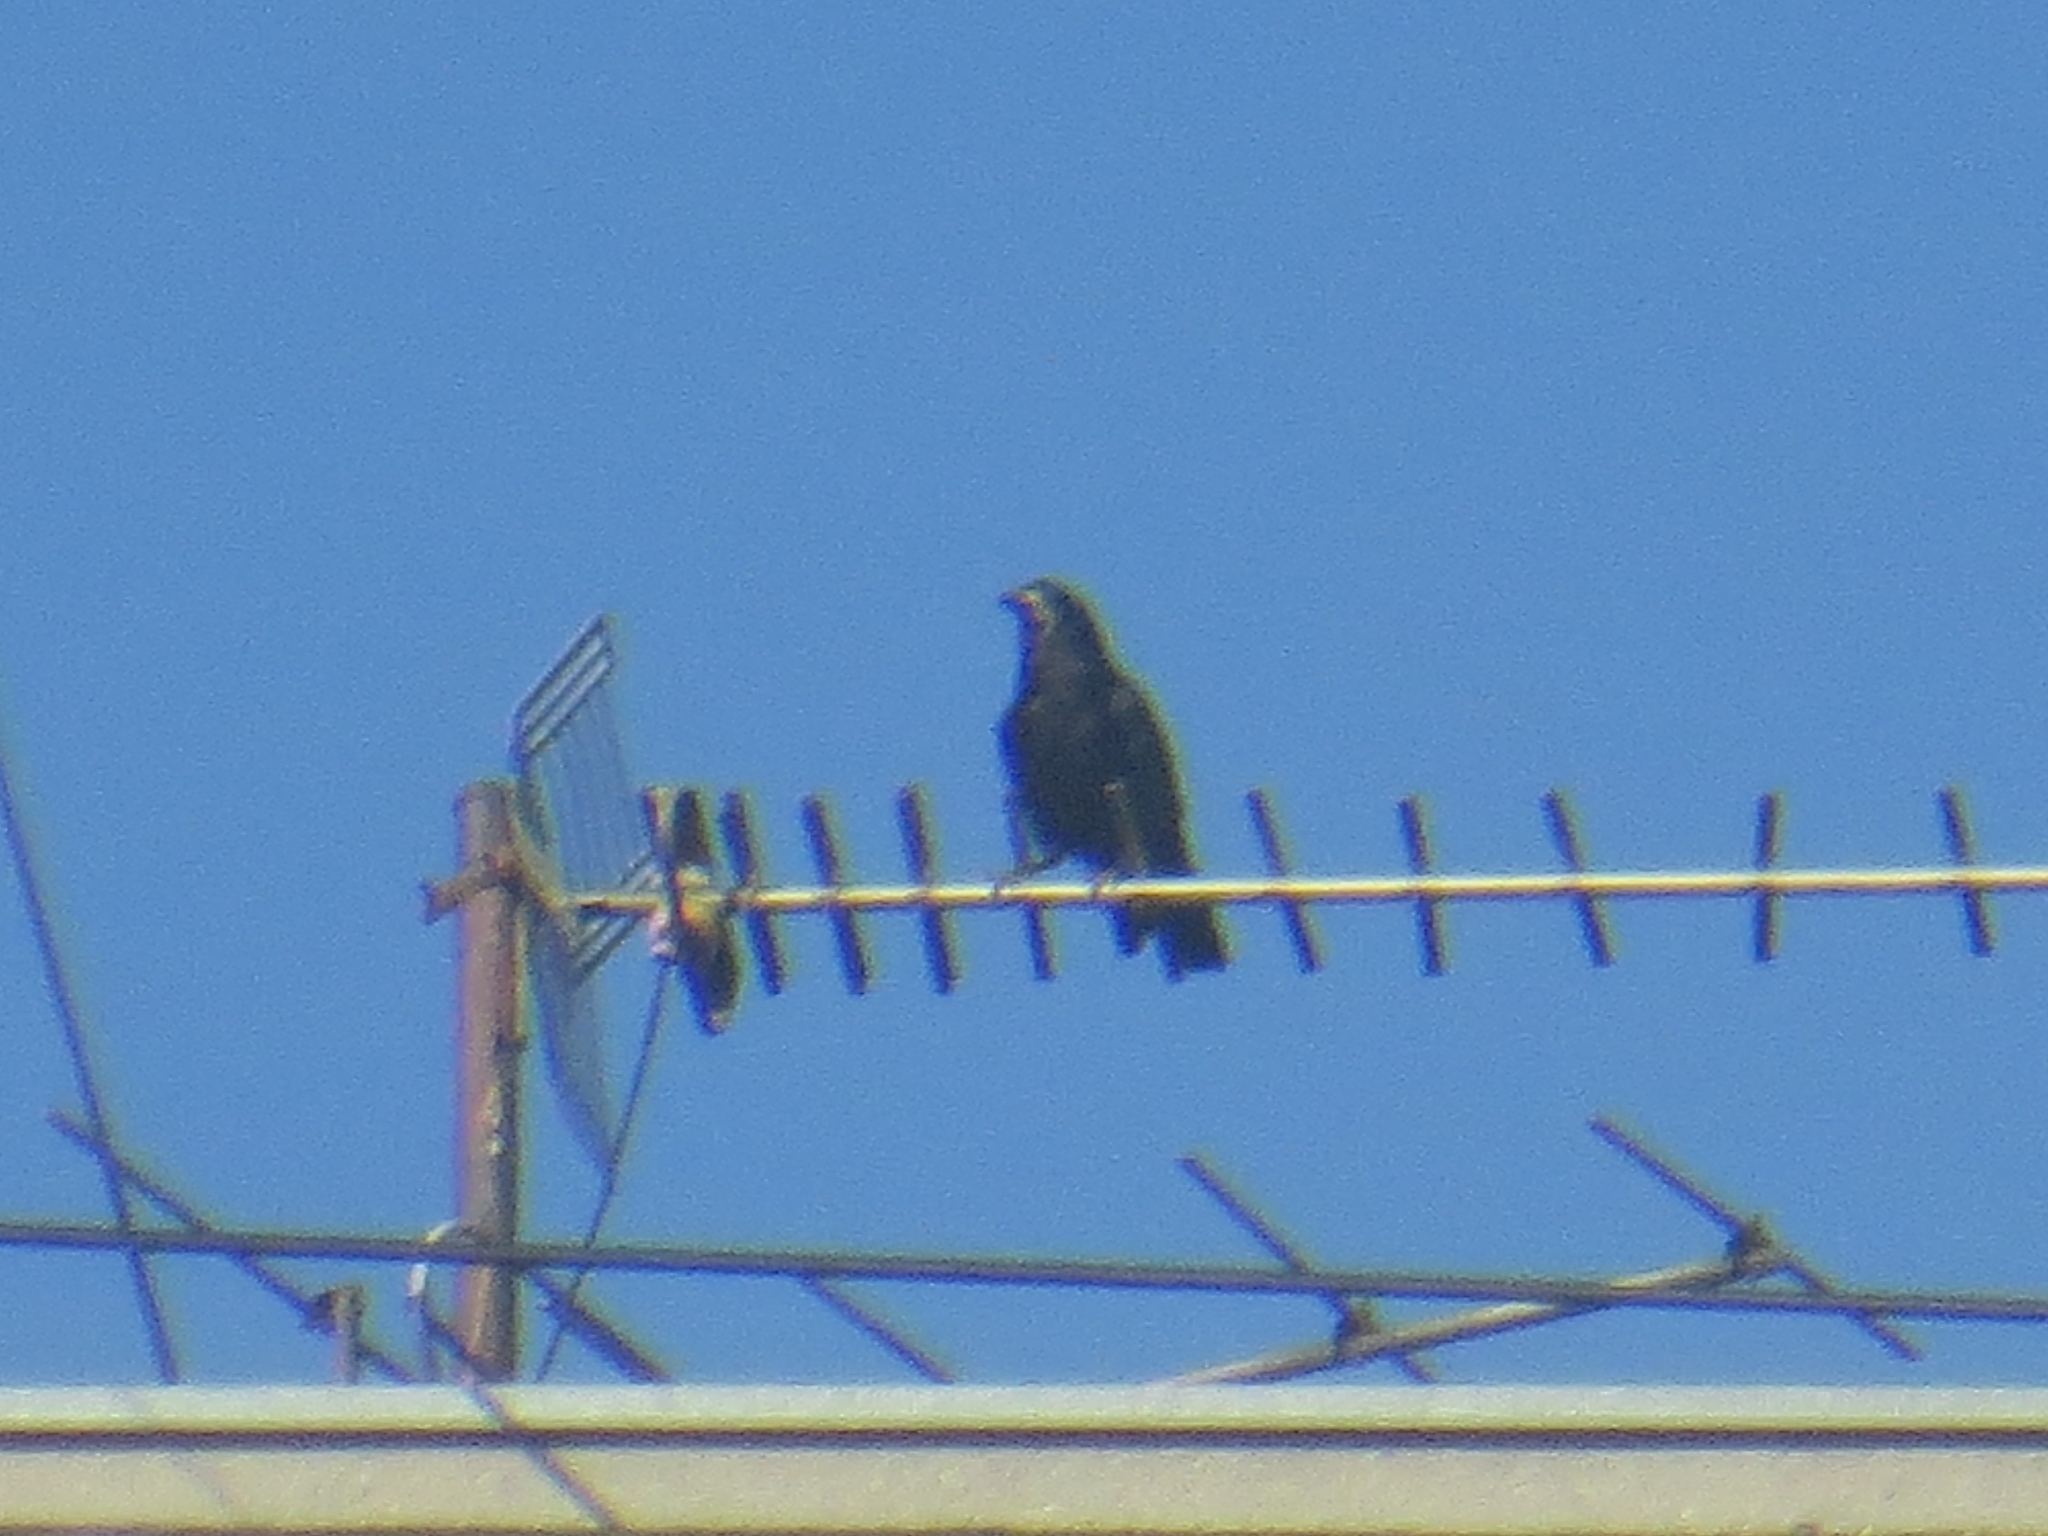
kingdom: Animalia
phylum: Chordata
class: Aves
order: Passeriformes
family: Corvidae
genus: Corvus
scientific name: Corvus frugilegus
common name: Rook
